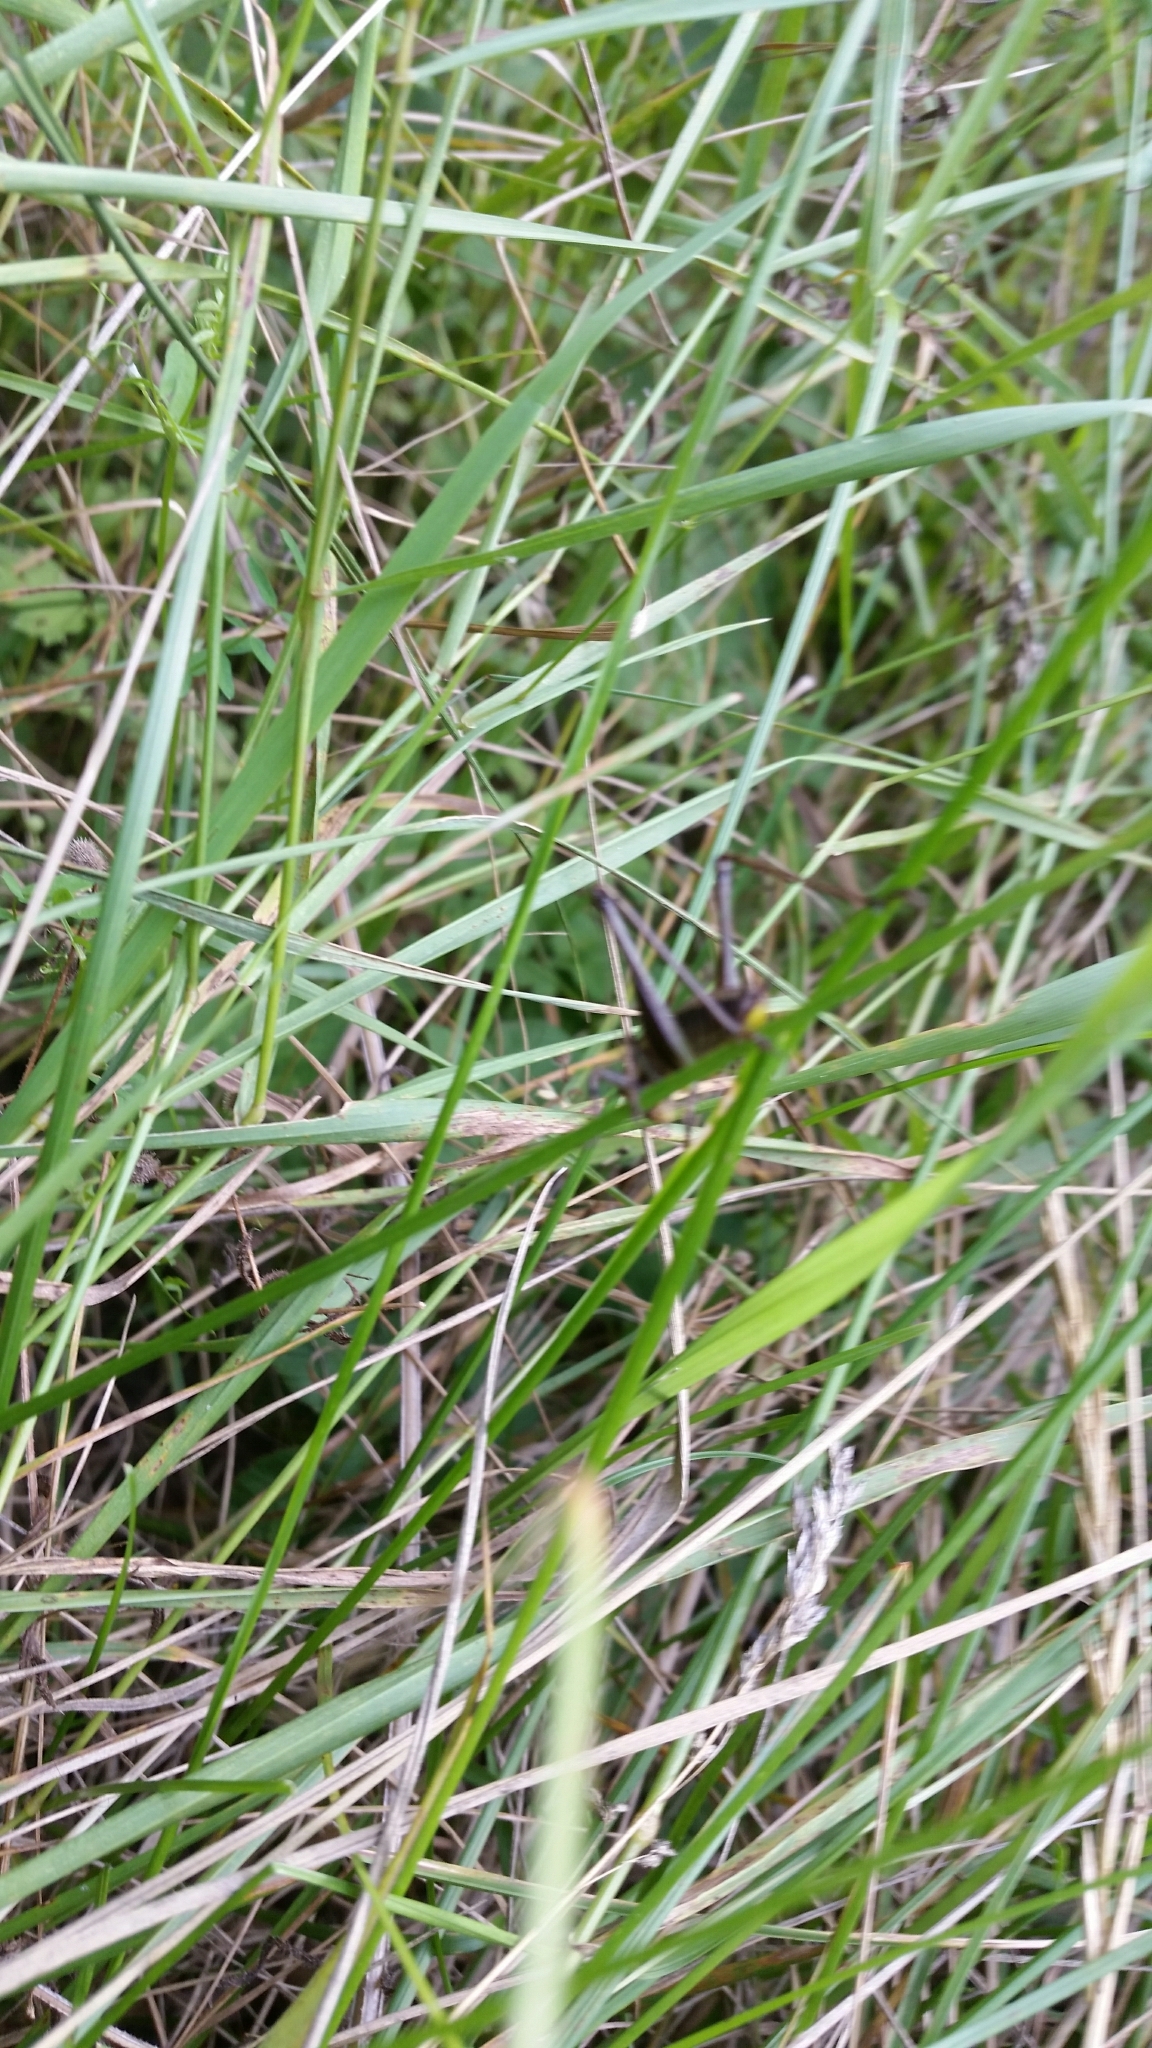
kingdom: Animalia
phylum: Arthropoda
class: Insecta
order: Orthoptera
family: Tettigoniidae
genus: Pholidoptera
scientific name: Pholidoptera griseoaptera
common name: Dark bush-cricket
